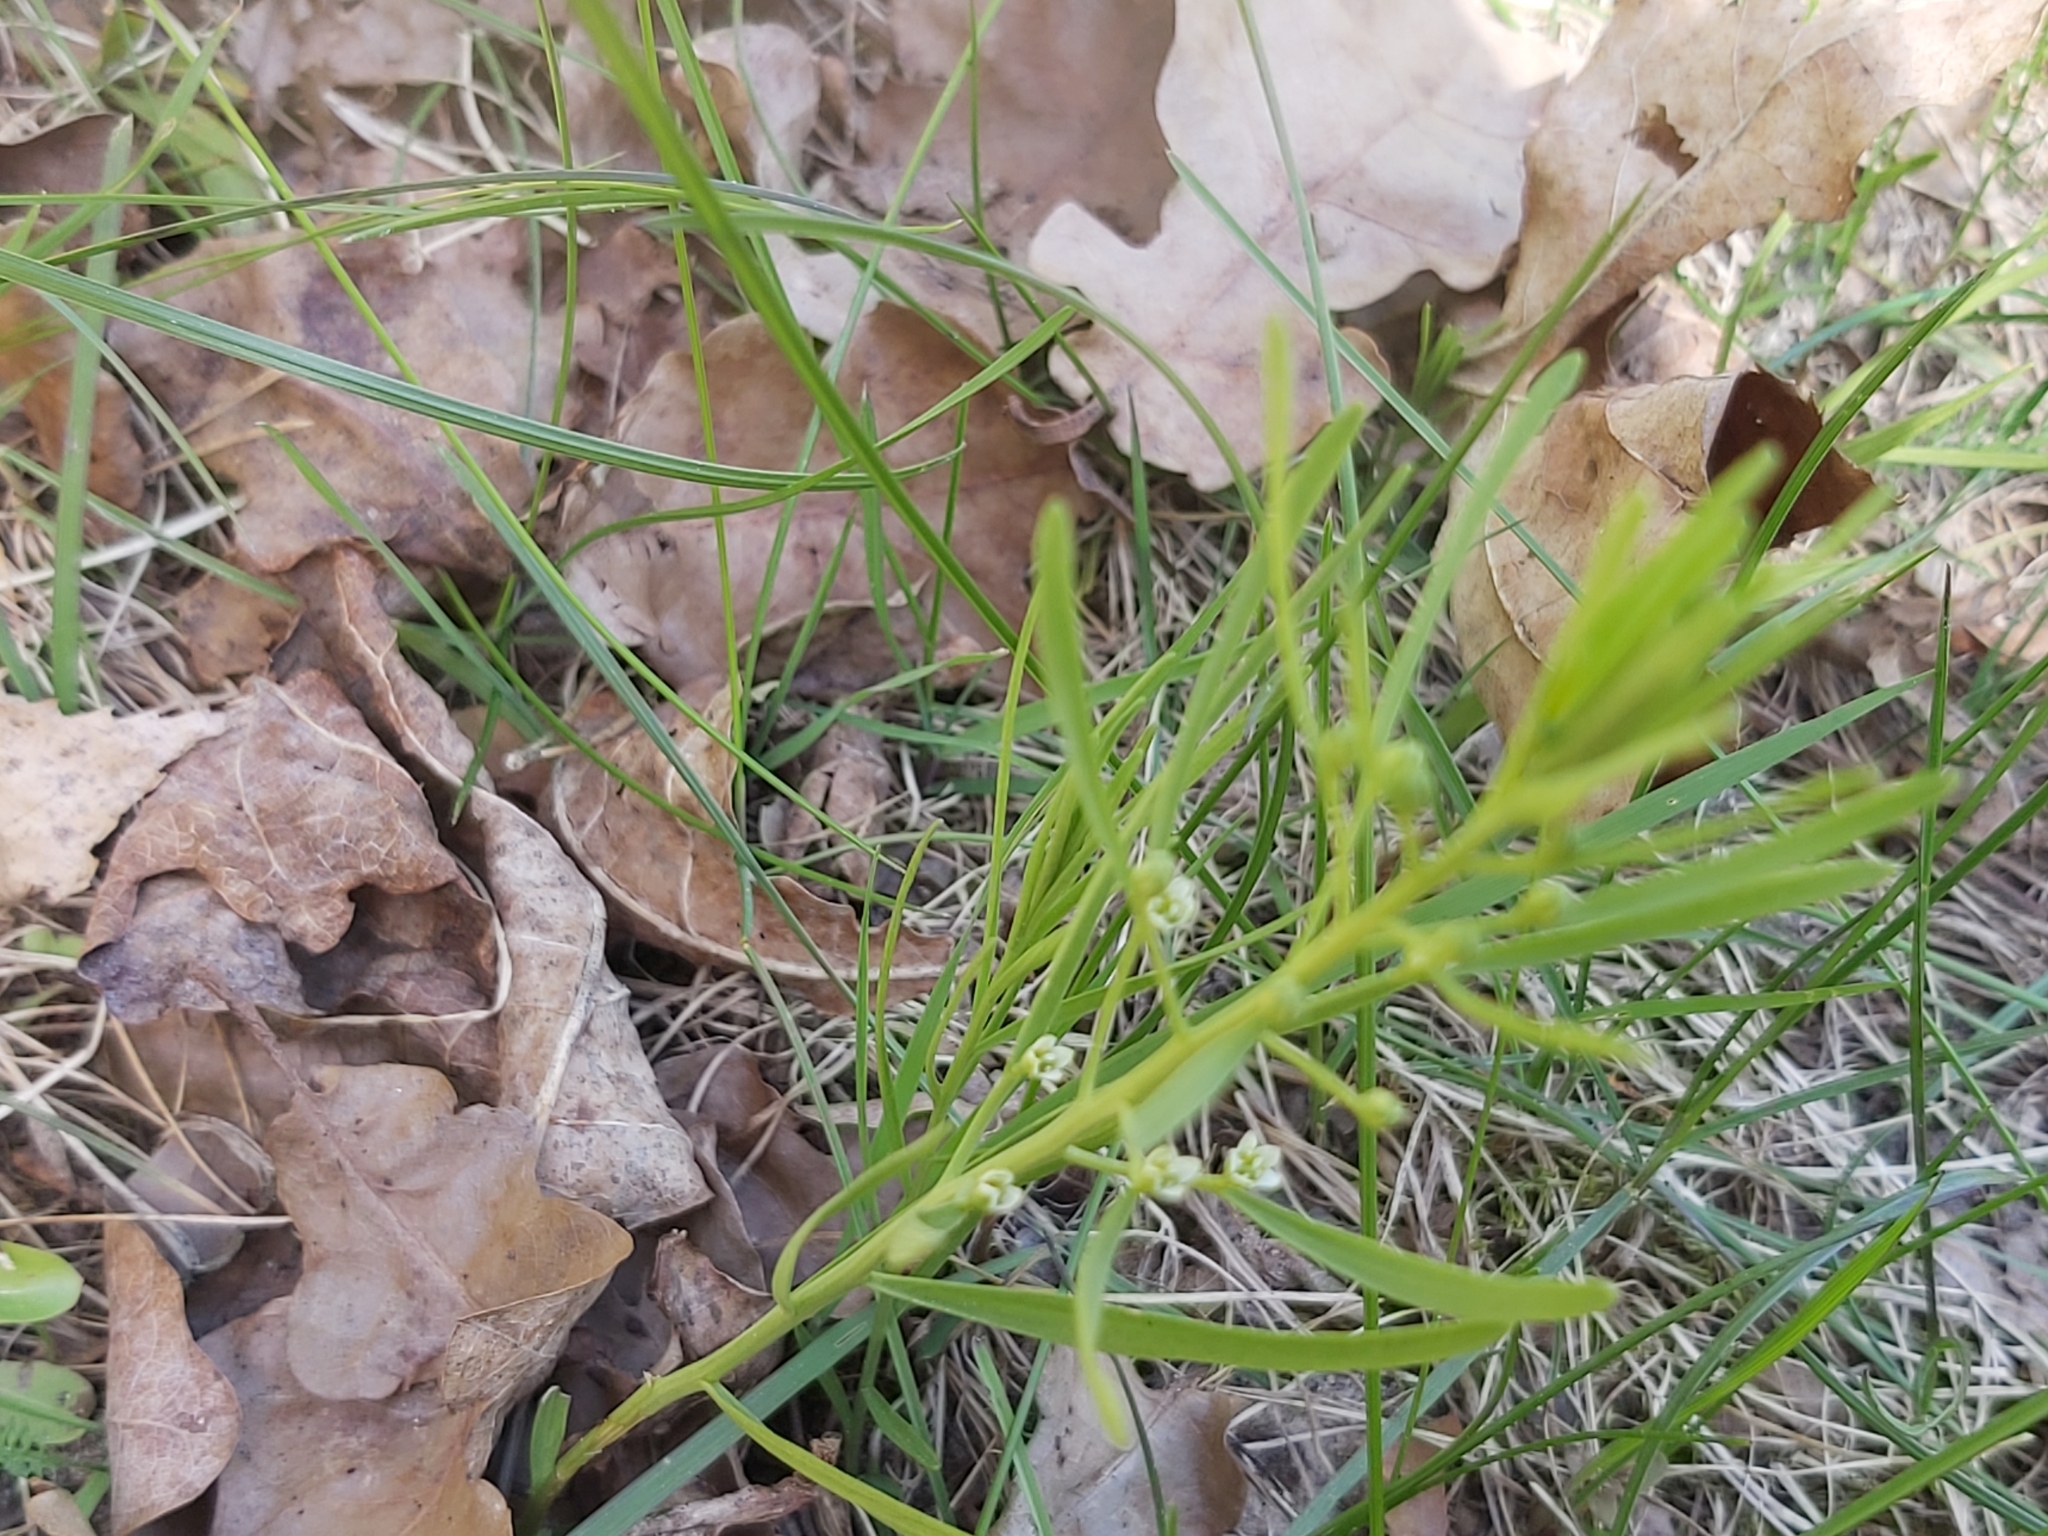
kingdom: Plantae
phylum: Tracheophyta
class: Magnoliopsida
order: Santalales
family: Thesiaceae
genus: Thesium
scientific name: Thesium ebracteatum
